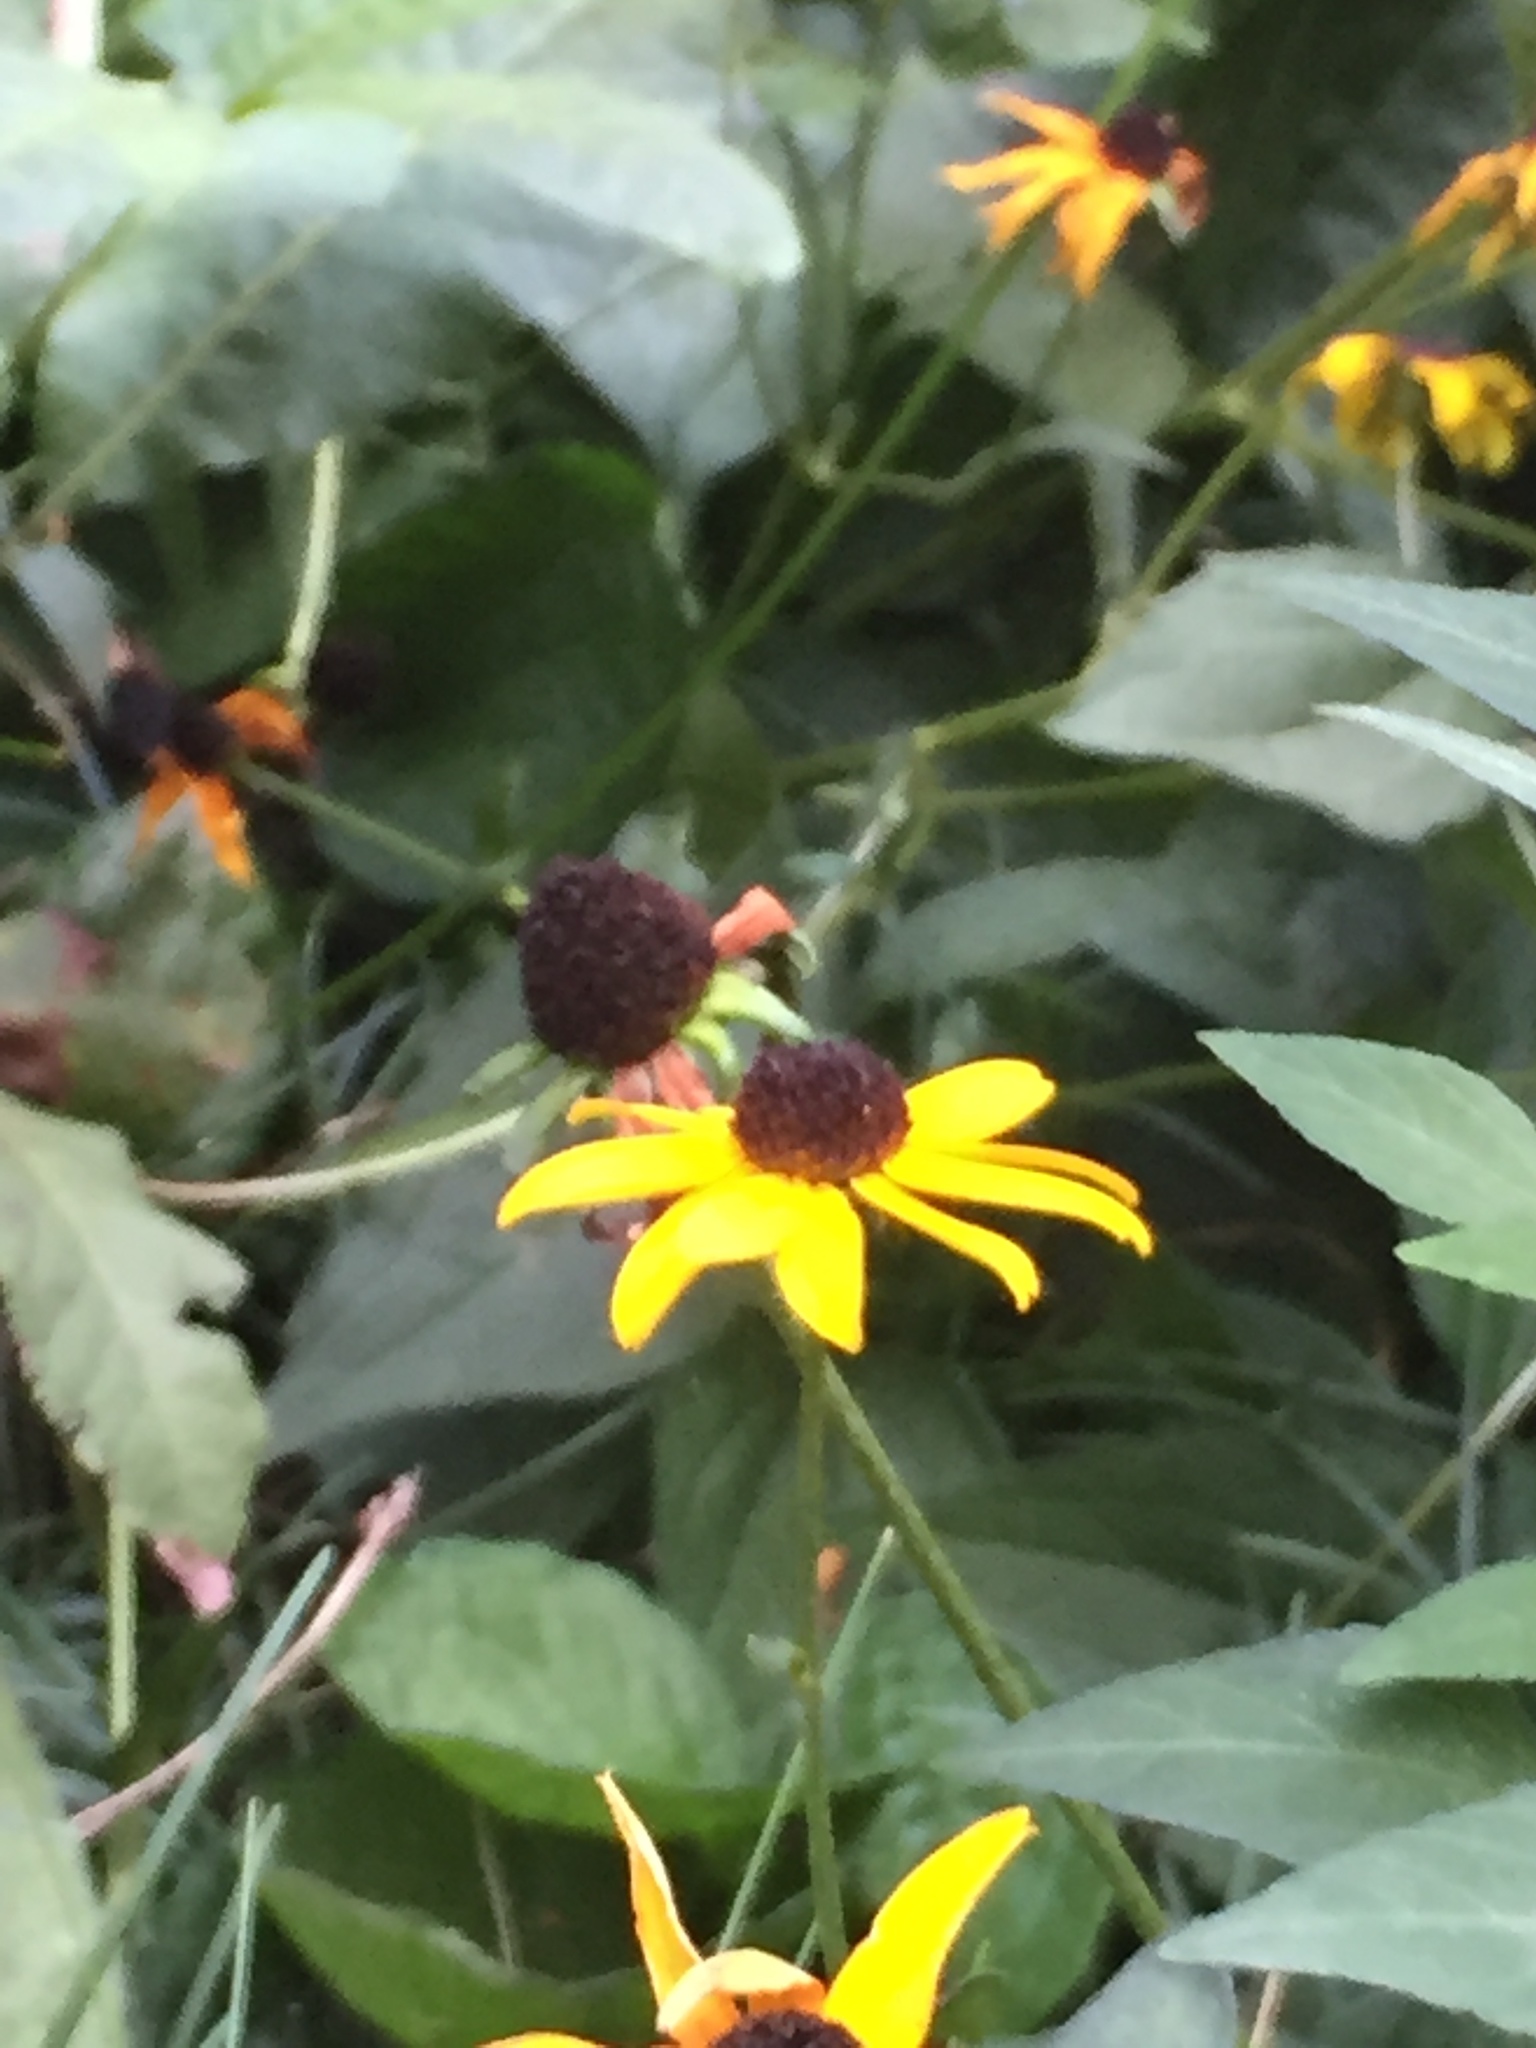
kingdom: Plantae
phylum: Tracheophyta
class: Magnoliopsida
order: Asterales
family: Asteraceae
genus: Rudbeckia
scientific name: Rudbeckia hirta
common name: Black-eyed-susan
